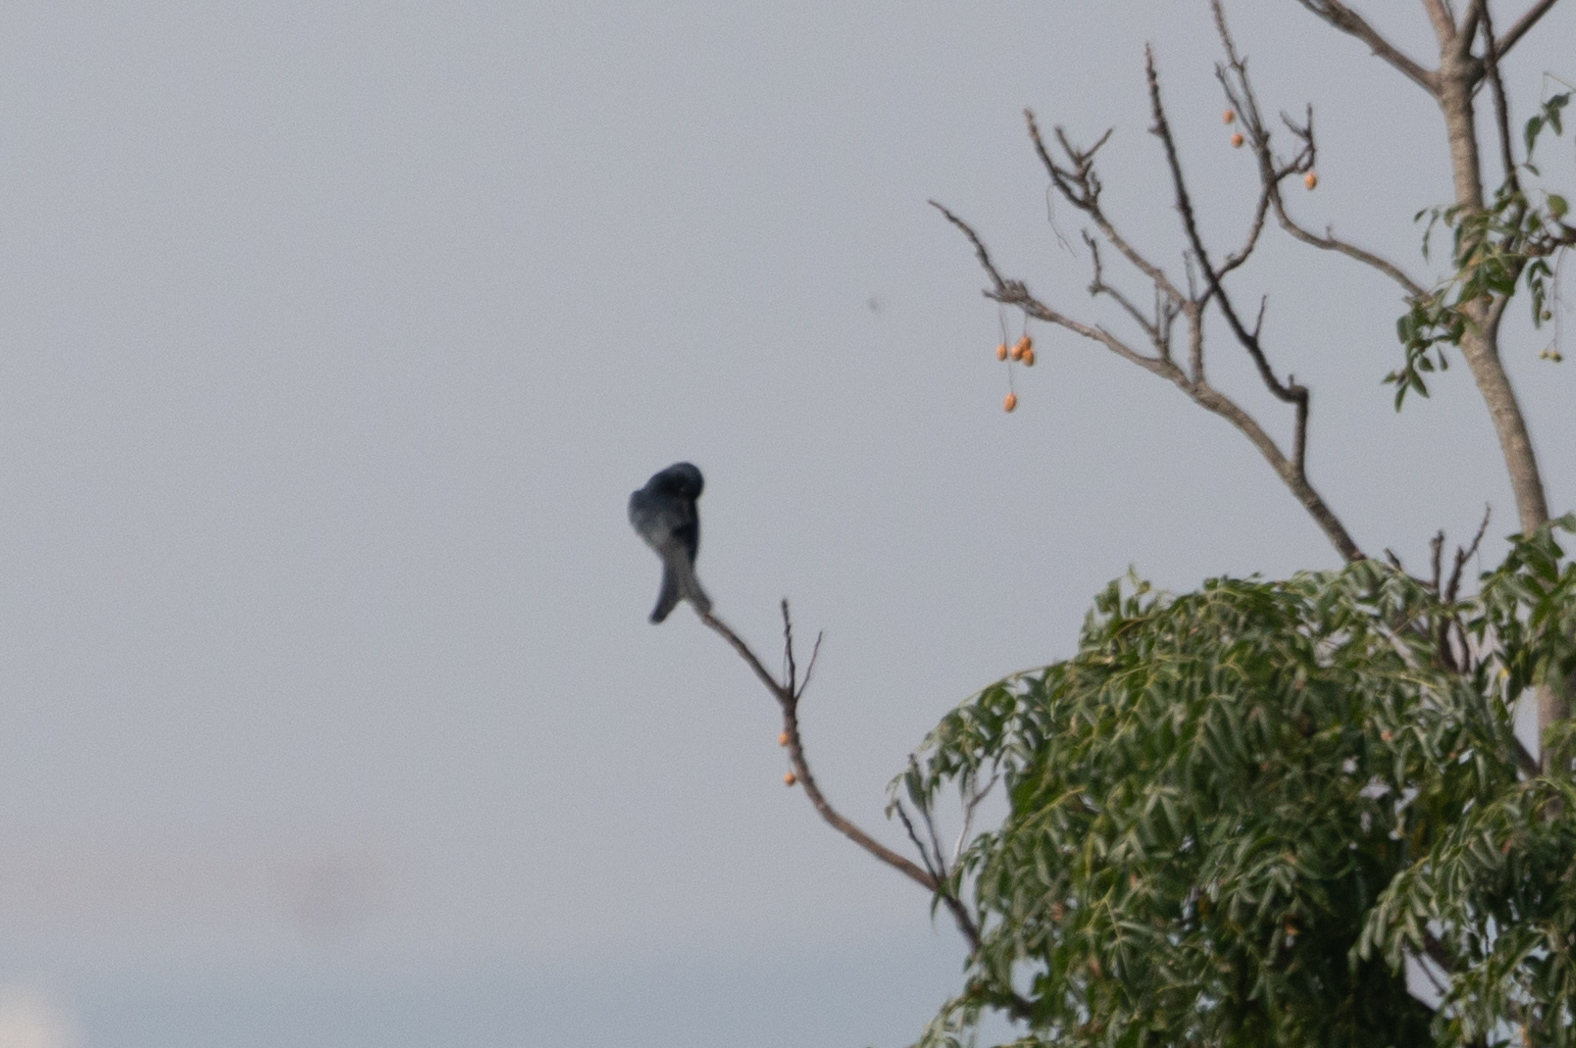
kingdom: Animalia
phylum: Chordata
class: Aves
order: Passeriformes
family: Dicruridae
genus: Dicrurus
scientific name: Dicrurus macrocercus
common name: Black drongo
